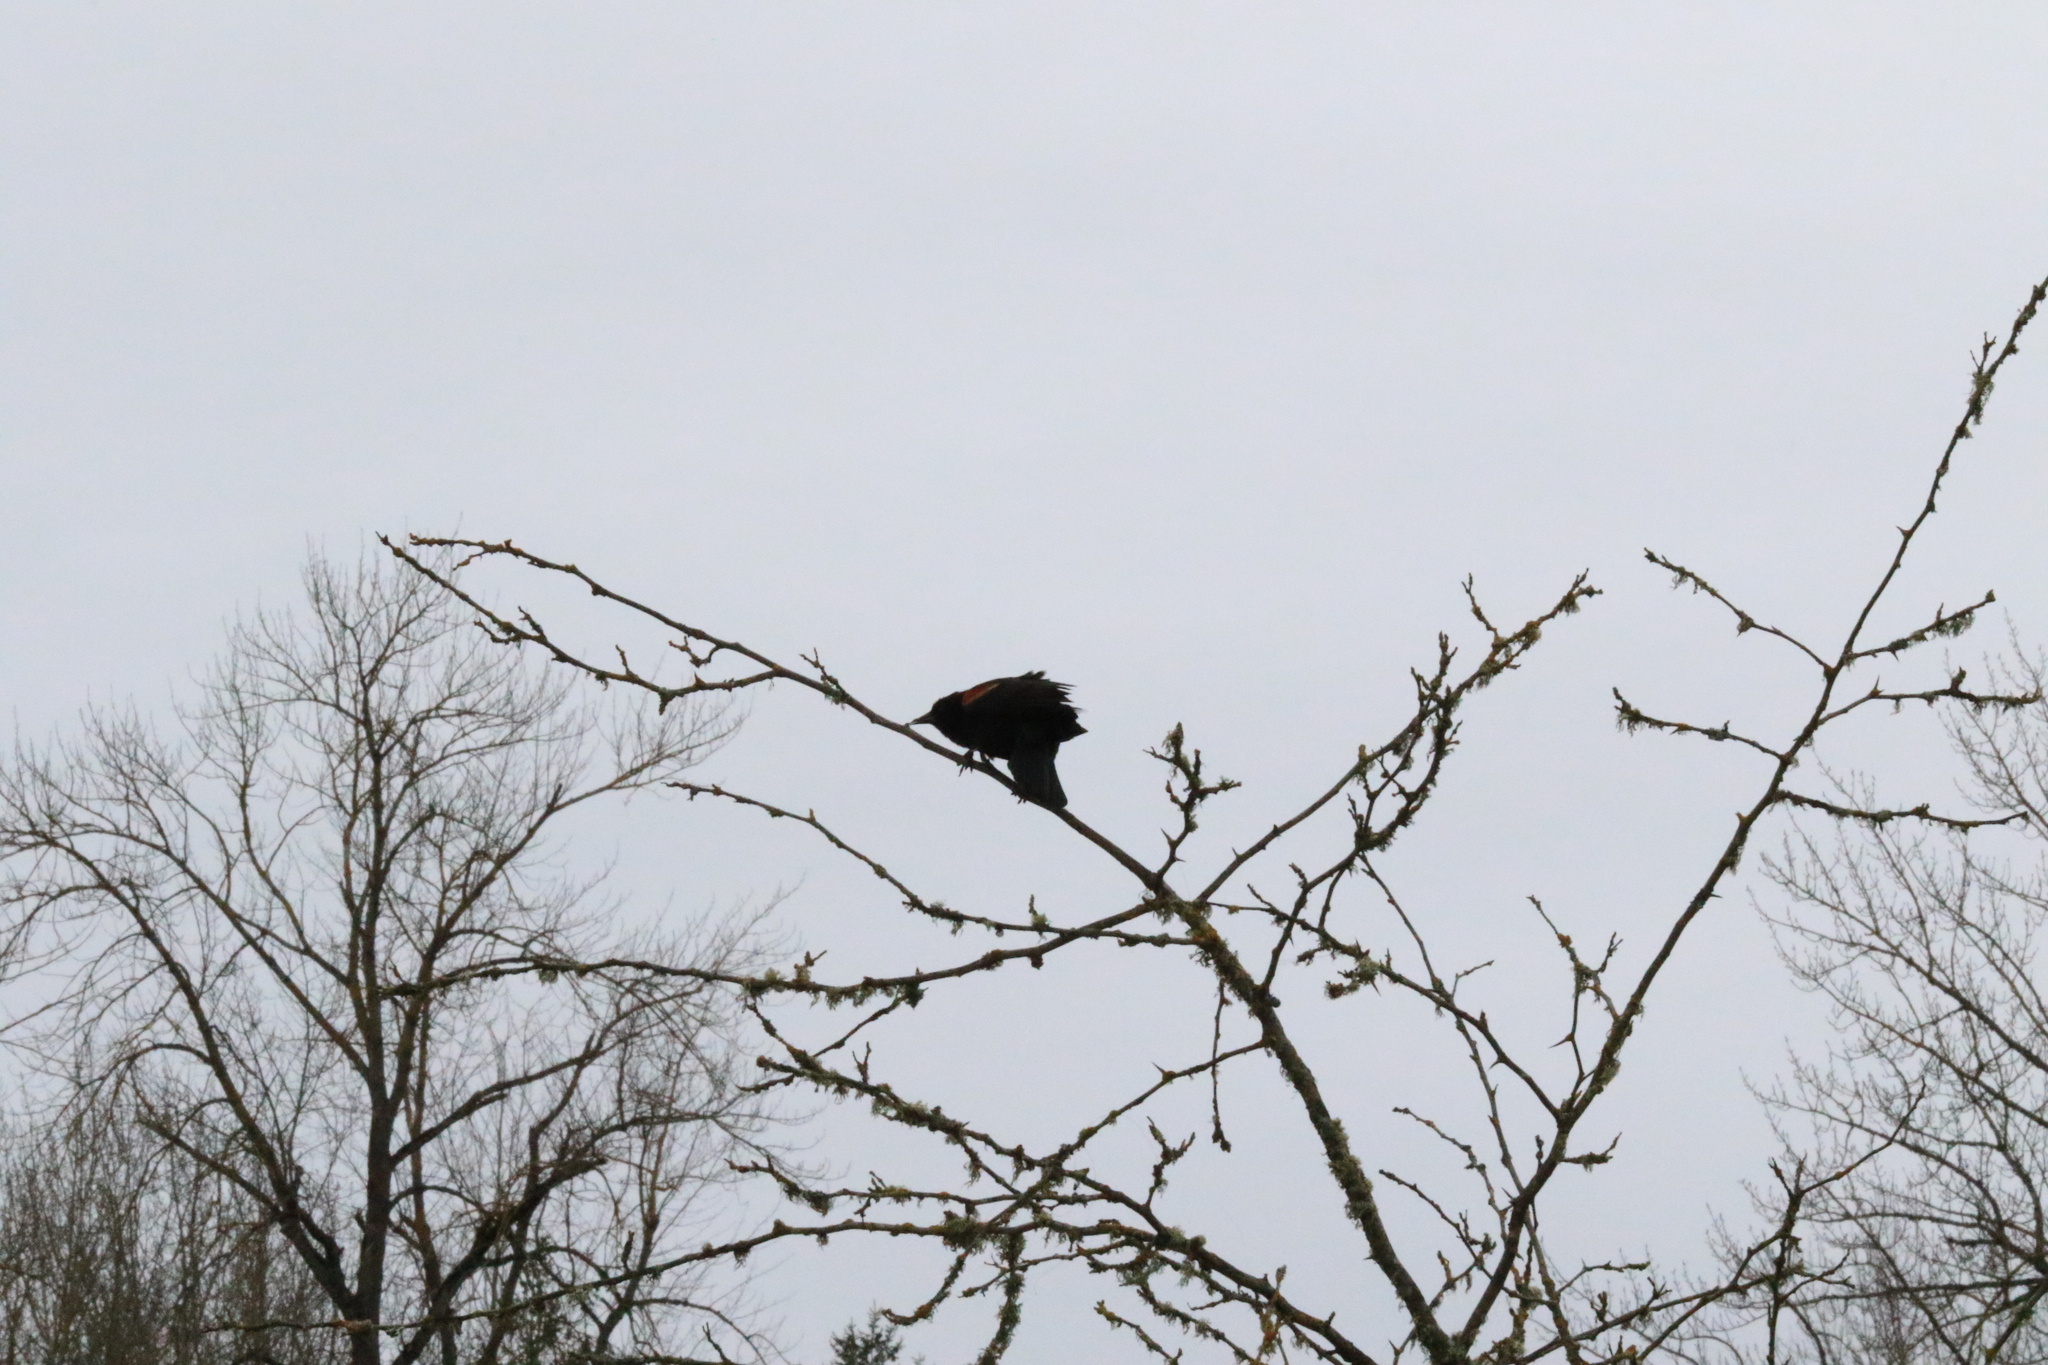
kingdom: Animalia
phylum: Chordata
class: Aves
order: Passeriformes
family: Icteridae
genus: Agelaius
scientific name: Agelaius phoeniceus
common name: Red-winged blackbird
